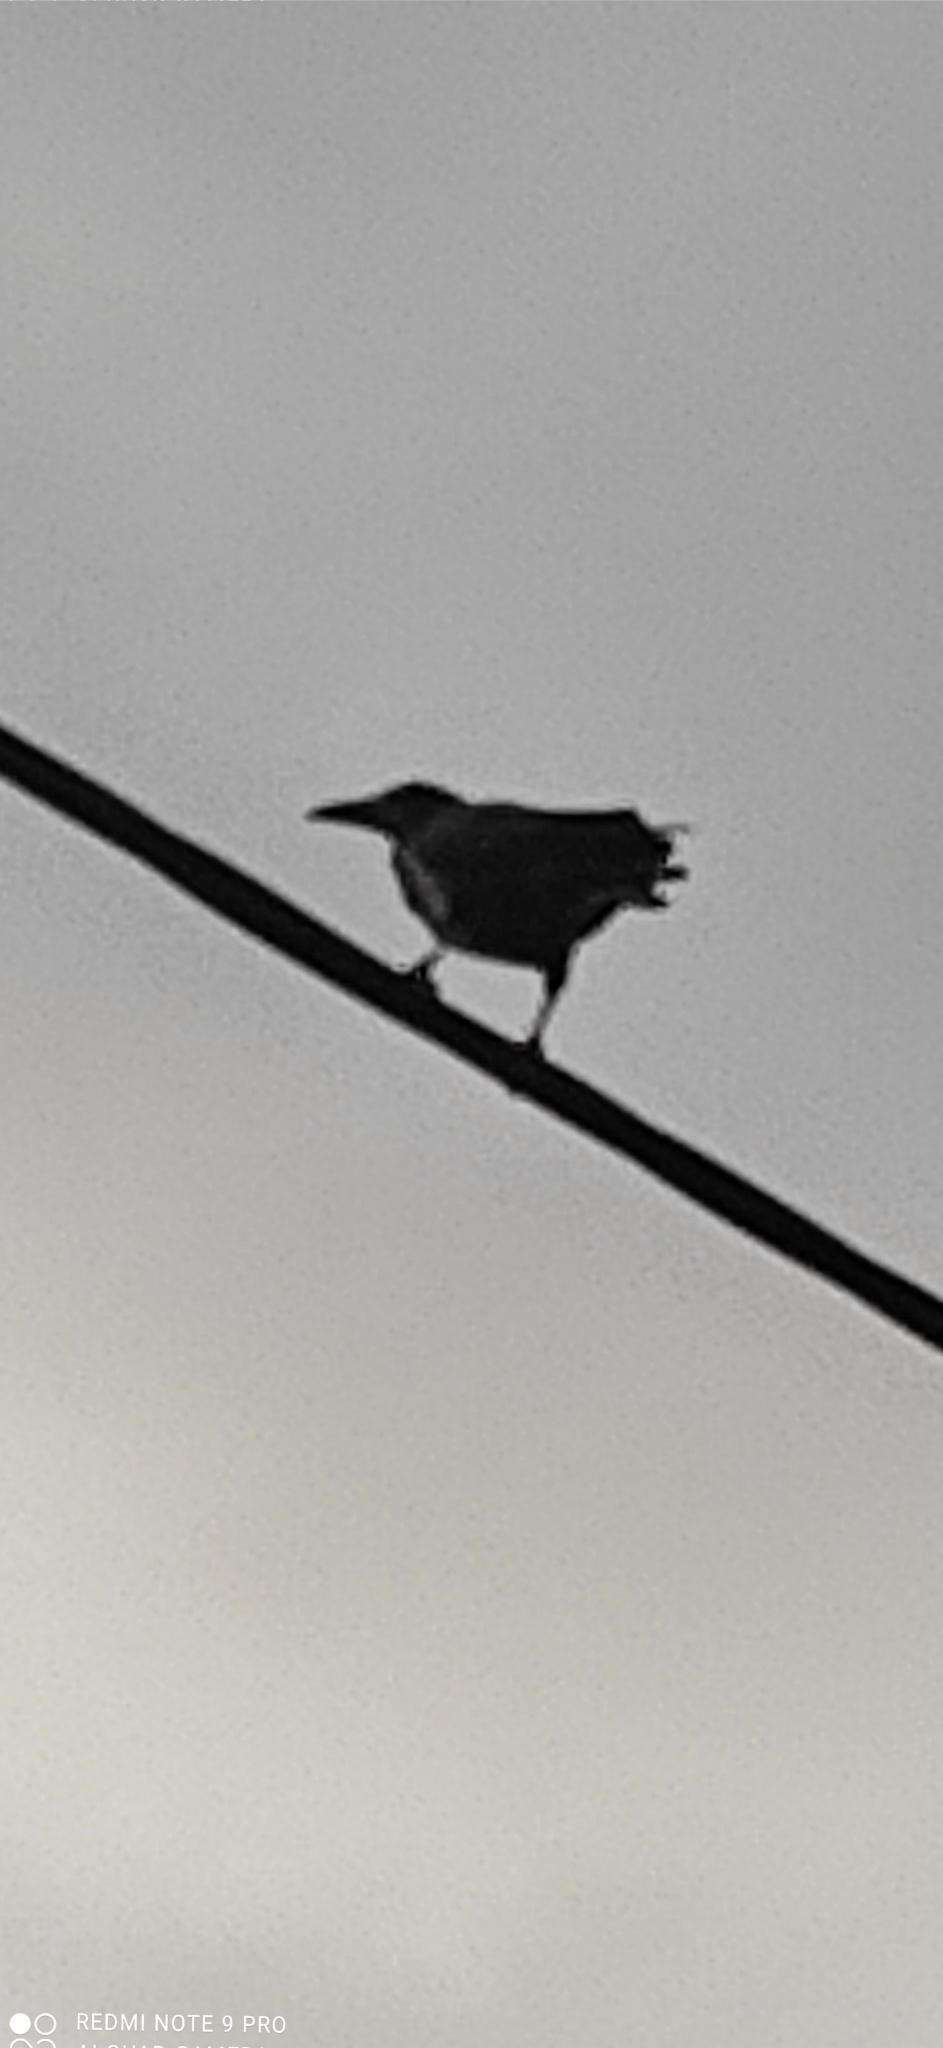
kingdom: Animalia
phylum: Chordata
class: Aves
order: Passeriformes
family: Corvidae
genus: Corvus
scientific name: Corvus frugilegus
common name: Rook
